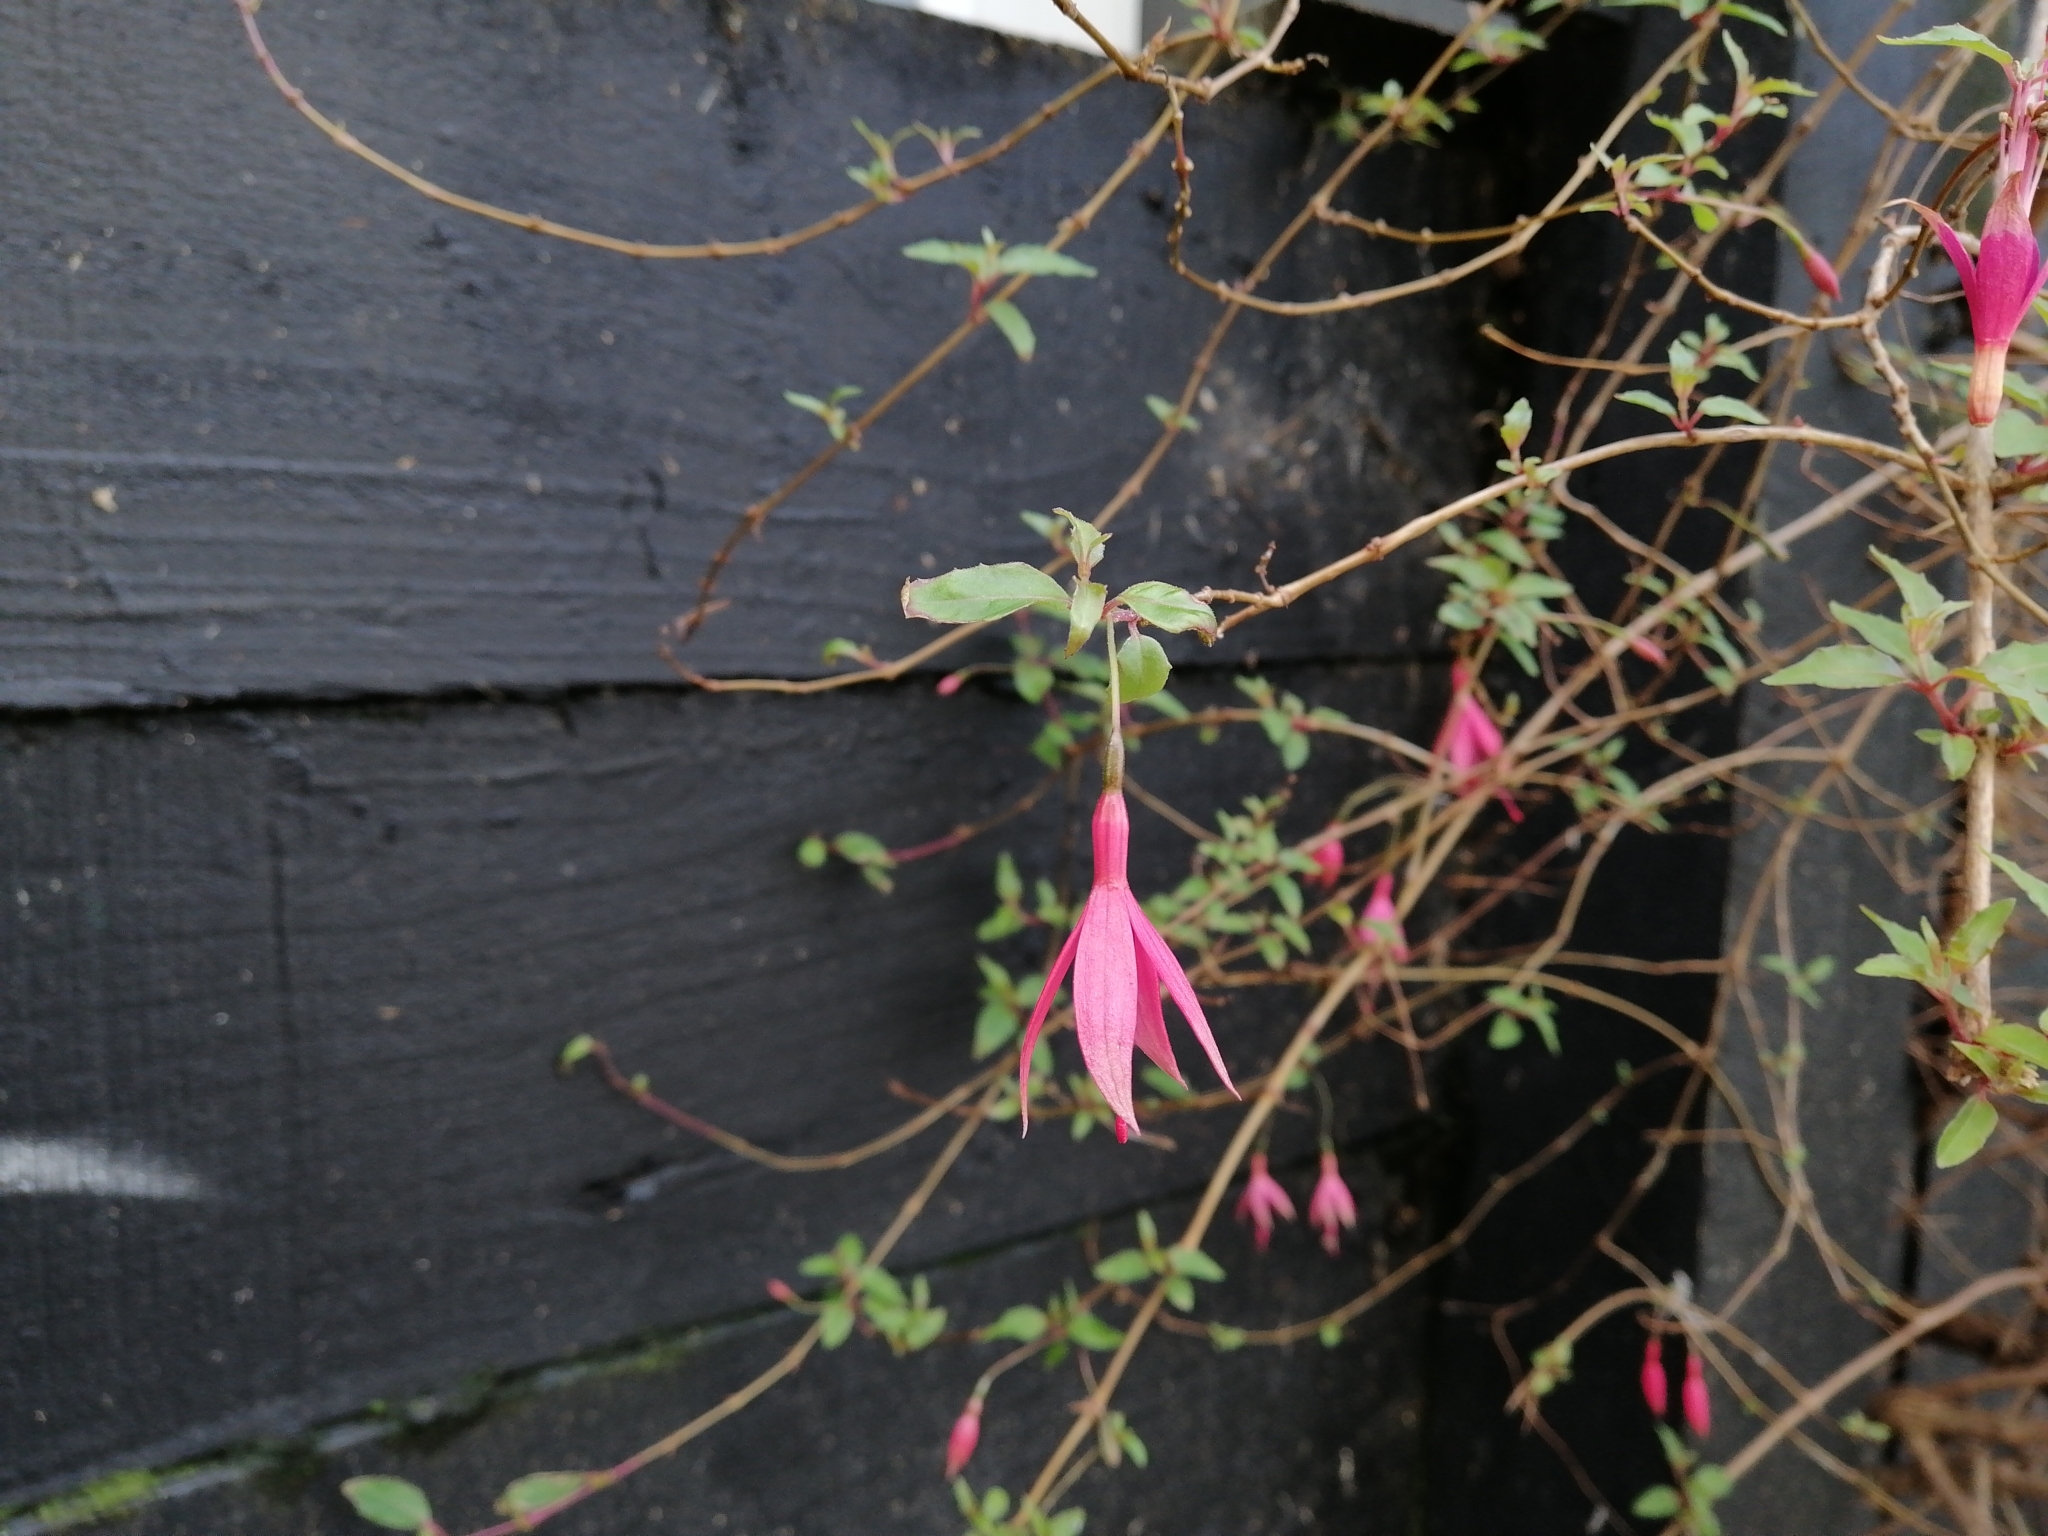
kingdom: Plantae
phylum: Tracheophyta
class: Magnoliopsida
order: Myrtales
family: Onagraceae
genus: Fuchsia
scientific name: Fuchsia magellanica
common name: Hardy fuchsia
